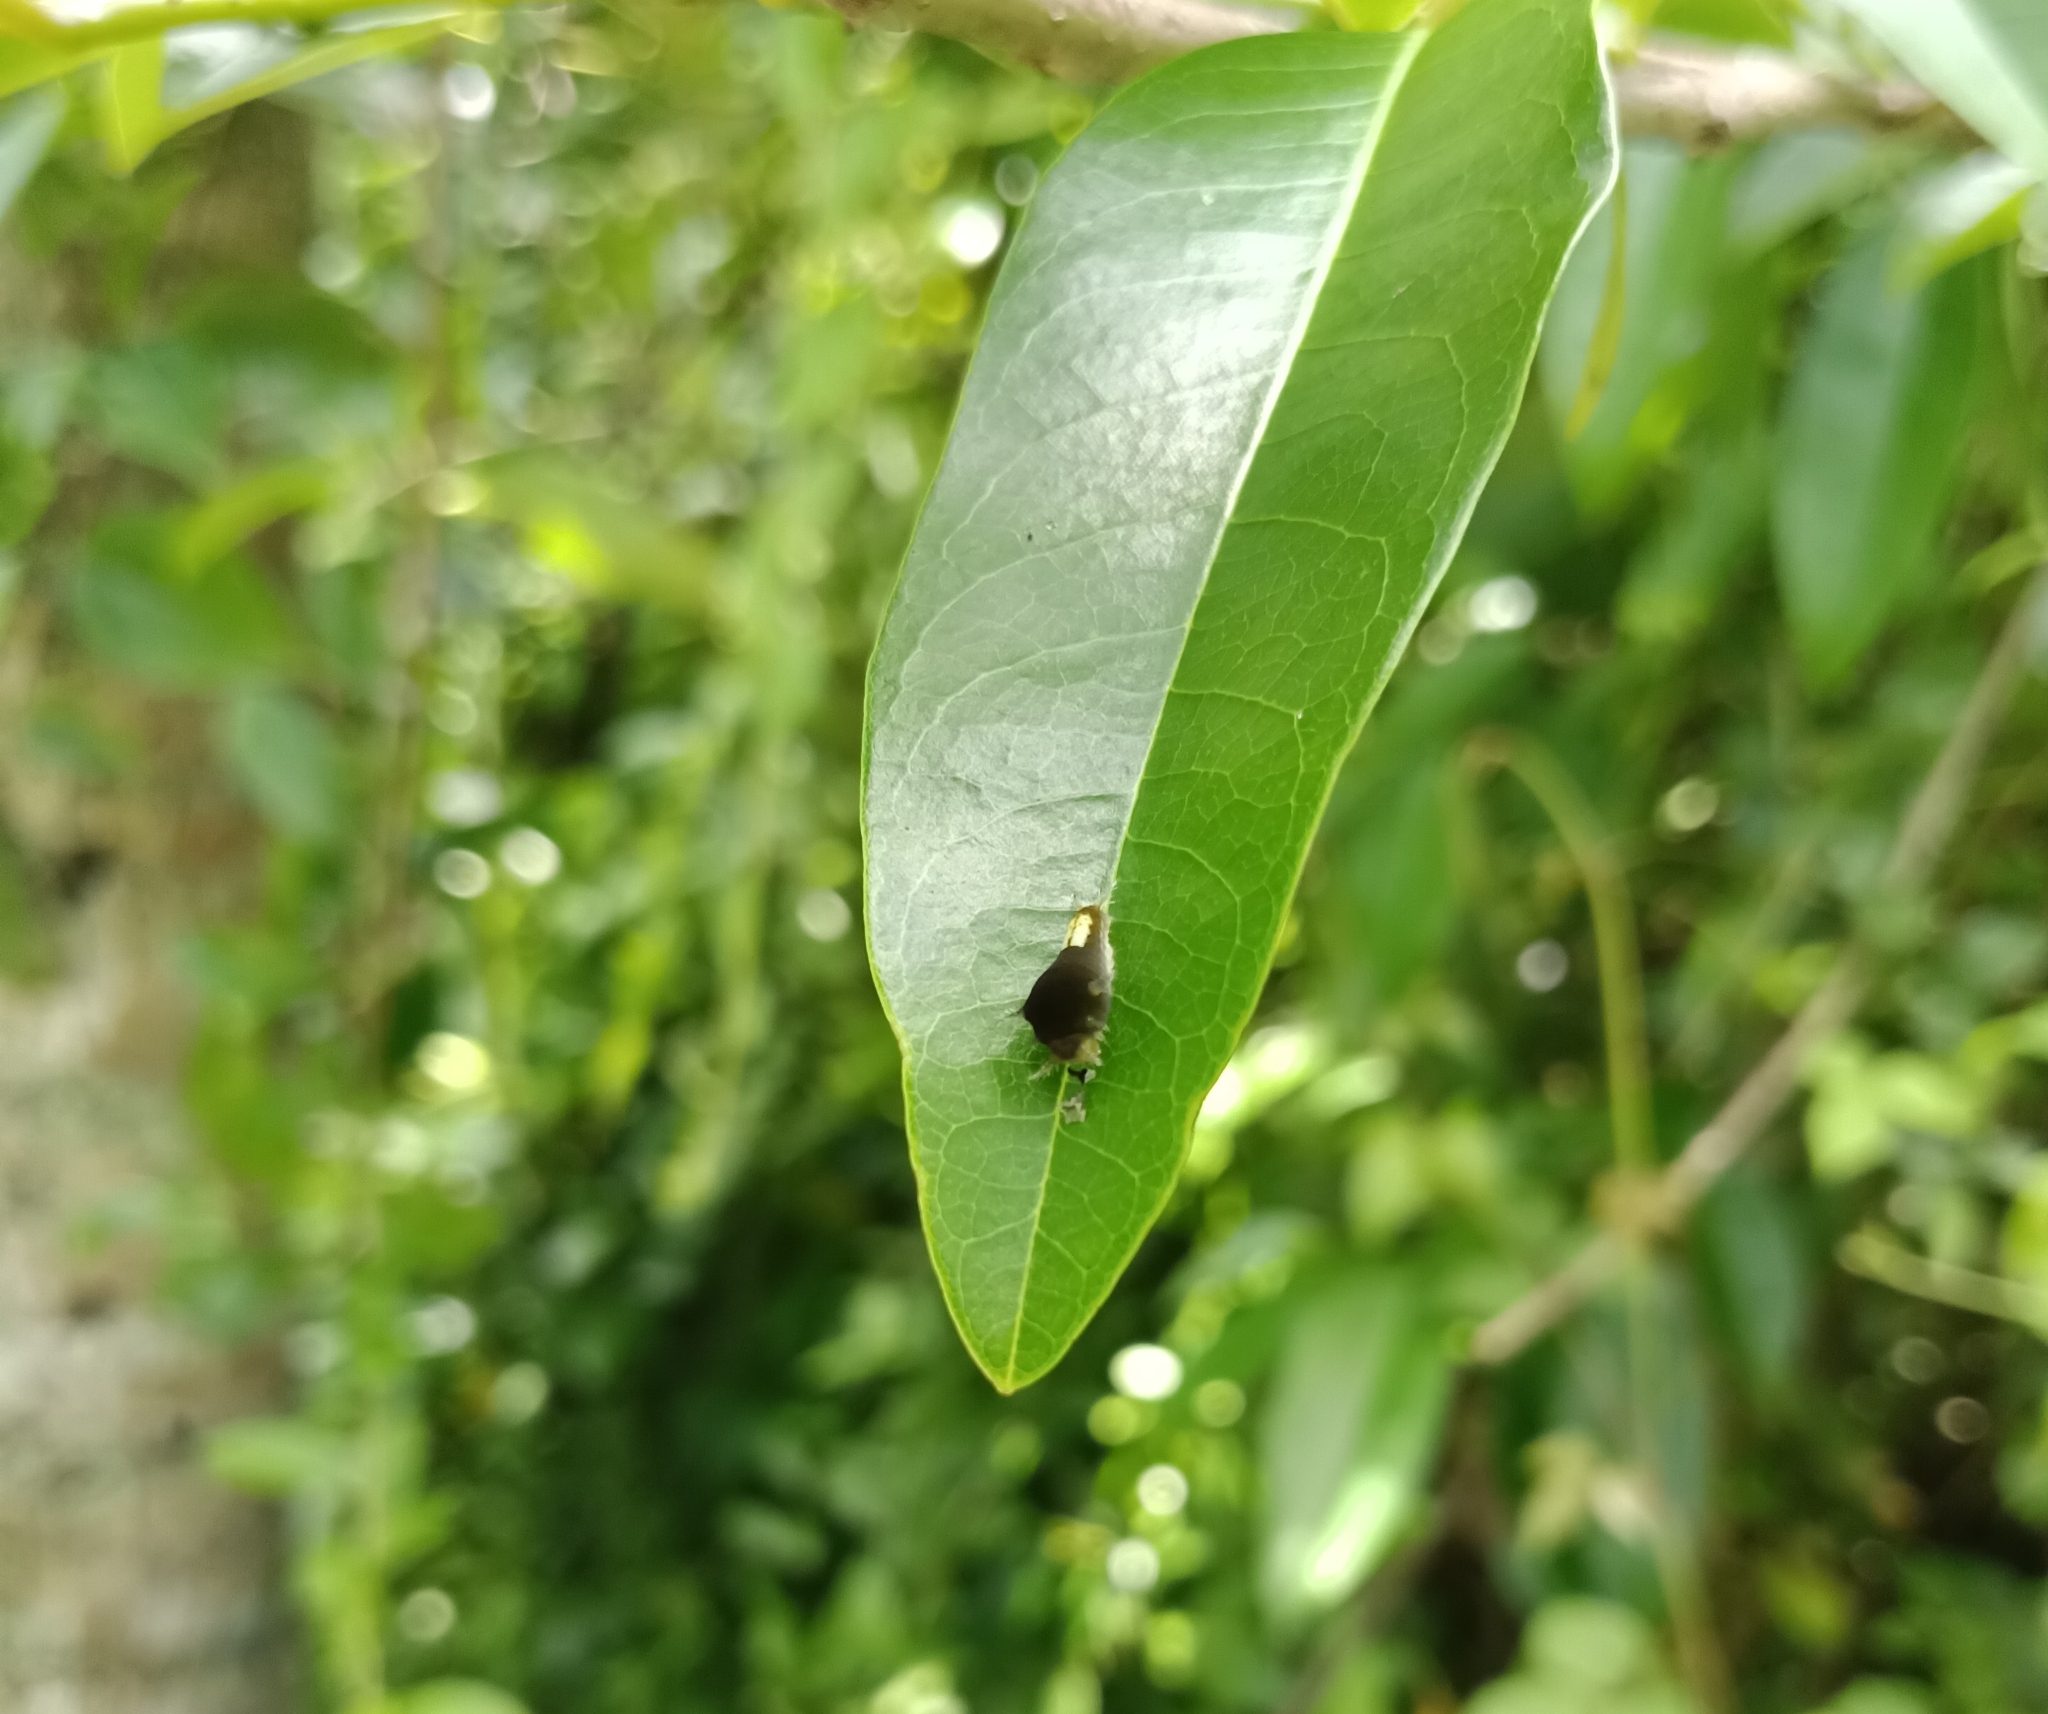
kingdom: Animalia
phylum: Arthropoda
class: Insecta
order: Lepidoptera
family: Papilionidae
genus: Graphium
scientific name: Graphium agamemnon
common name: Tailed jay
